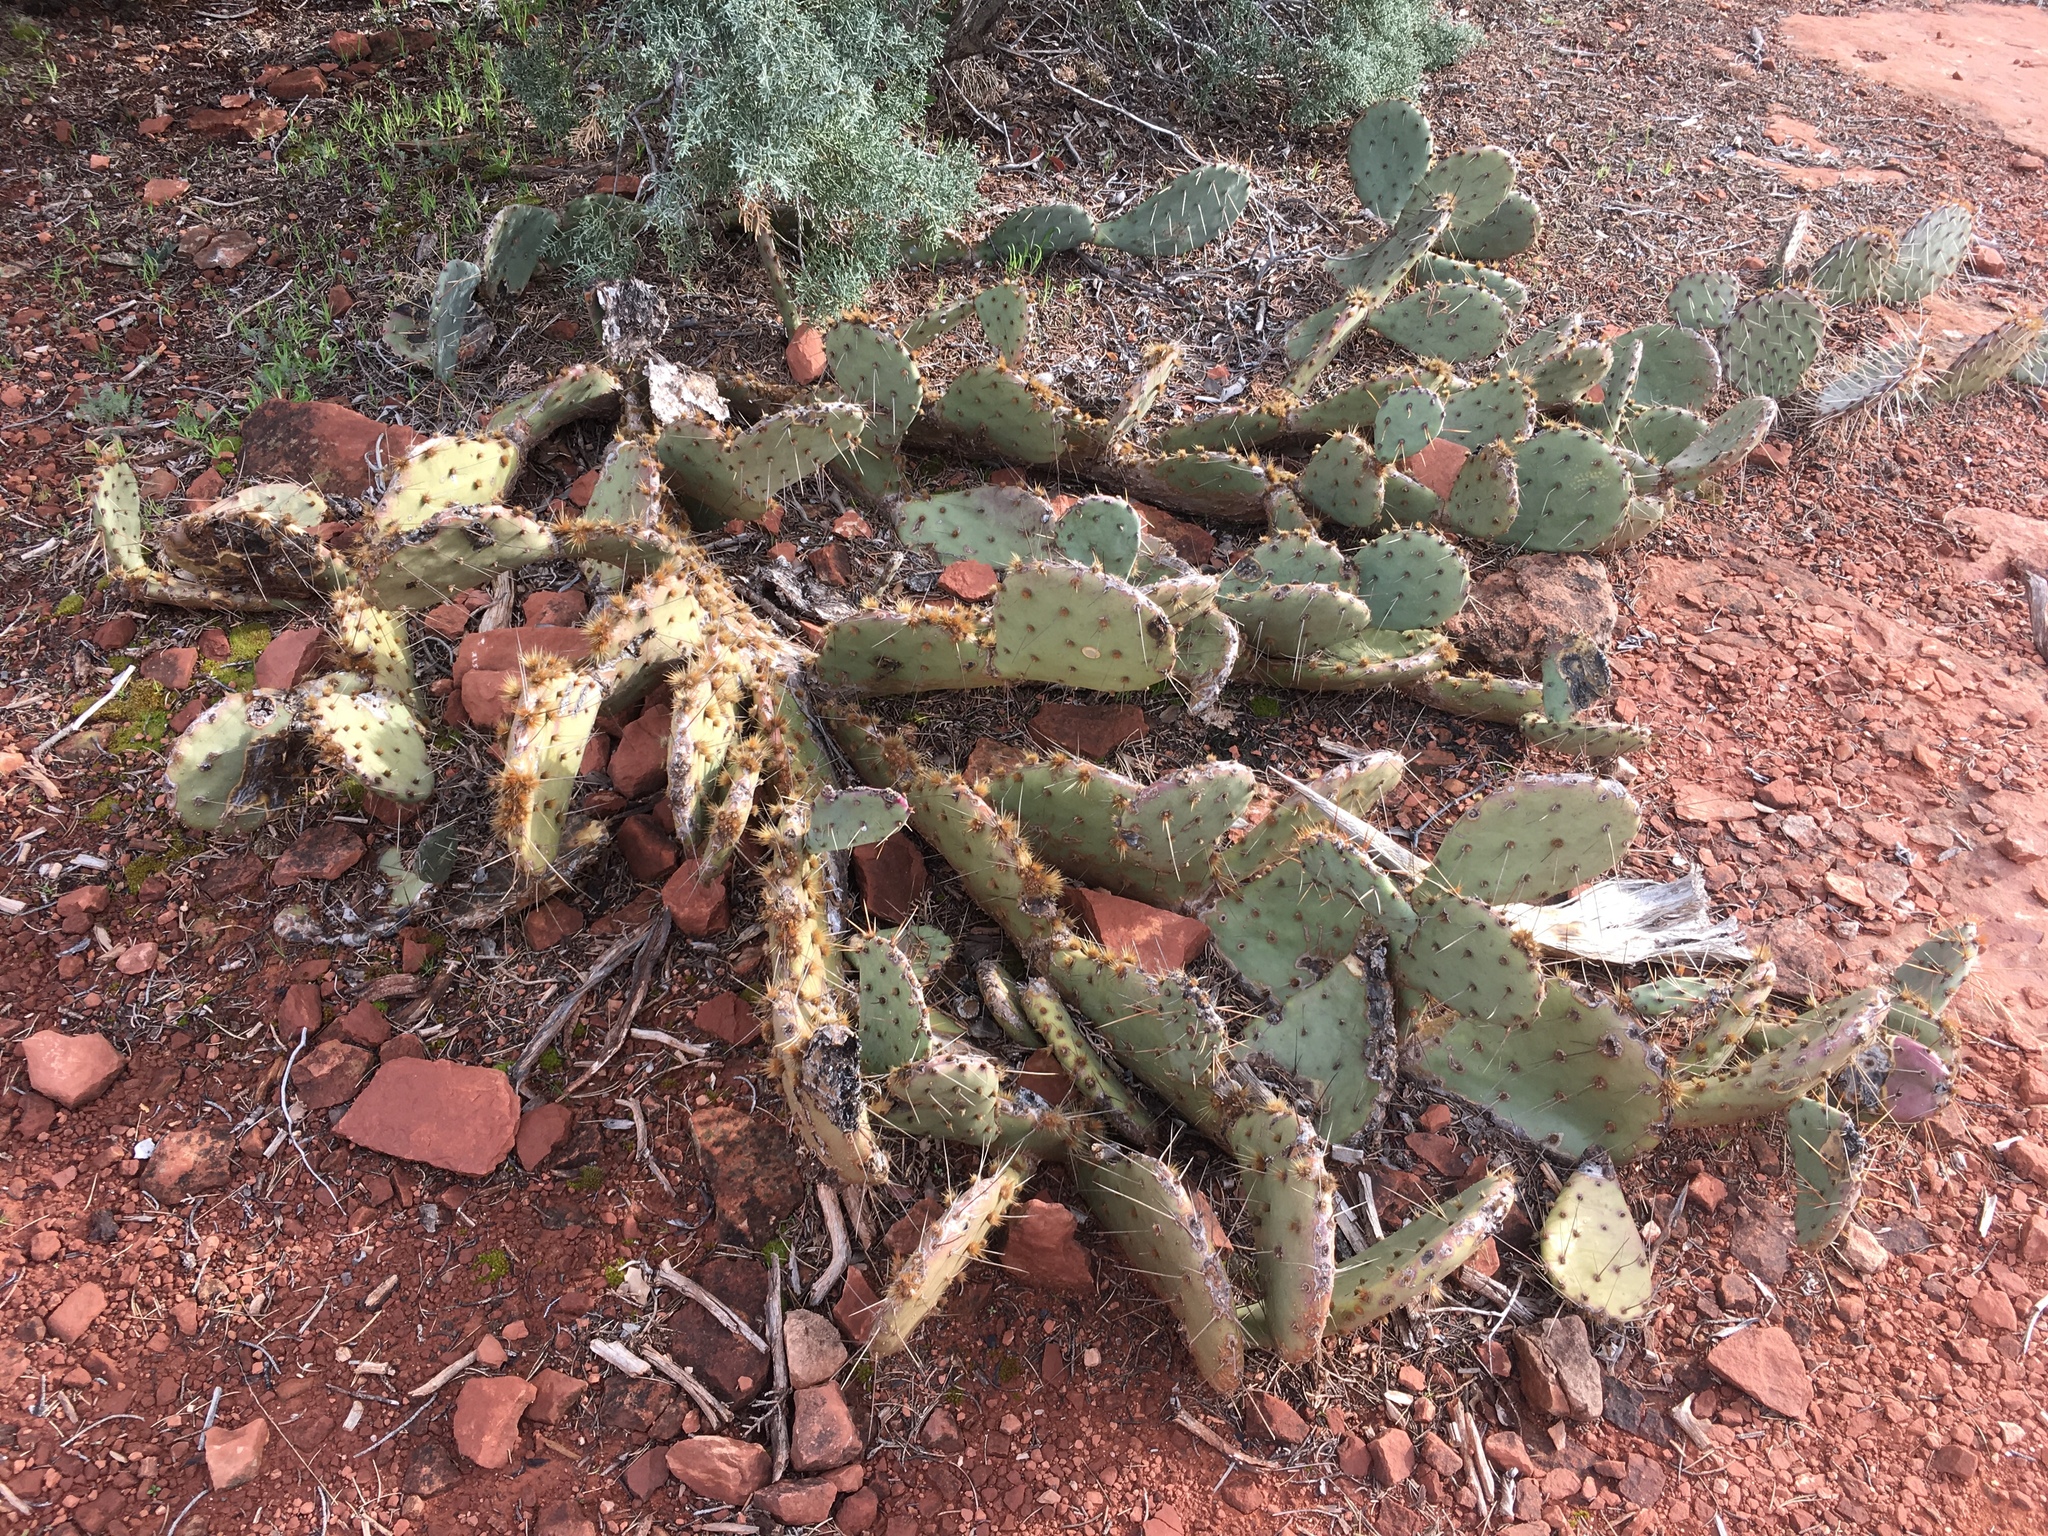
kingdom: Plantae
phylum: Tracheophyta
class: Magnoliopsida
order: Caryophyllales
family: Cactaceae
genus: Opuntia
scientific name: Opuntia phaeacantha
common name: New mexico prickly-pear
